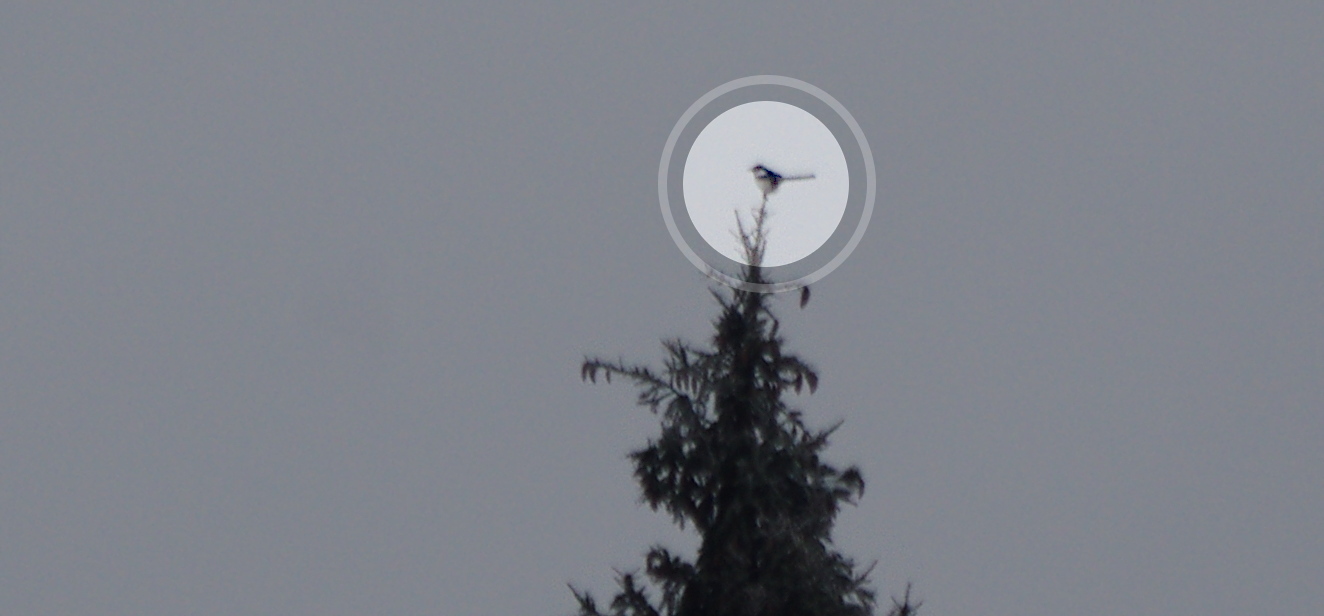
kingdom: Animalia
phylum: Chordata
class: Aves
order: Passeriformes
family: Corvidae
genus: Pica
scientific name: Pica pica
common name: Eurasian magpie
